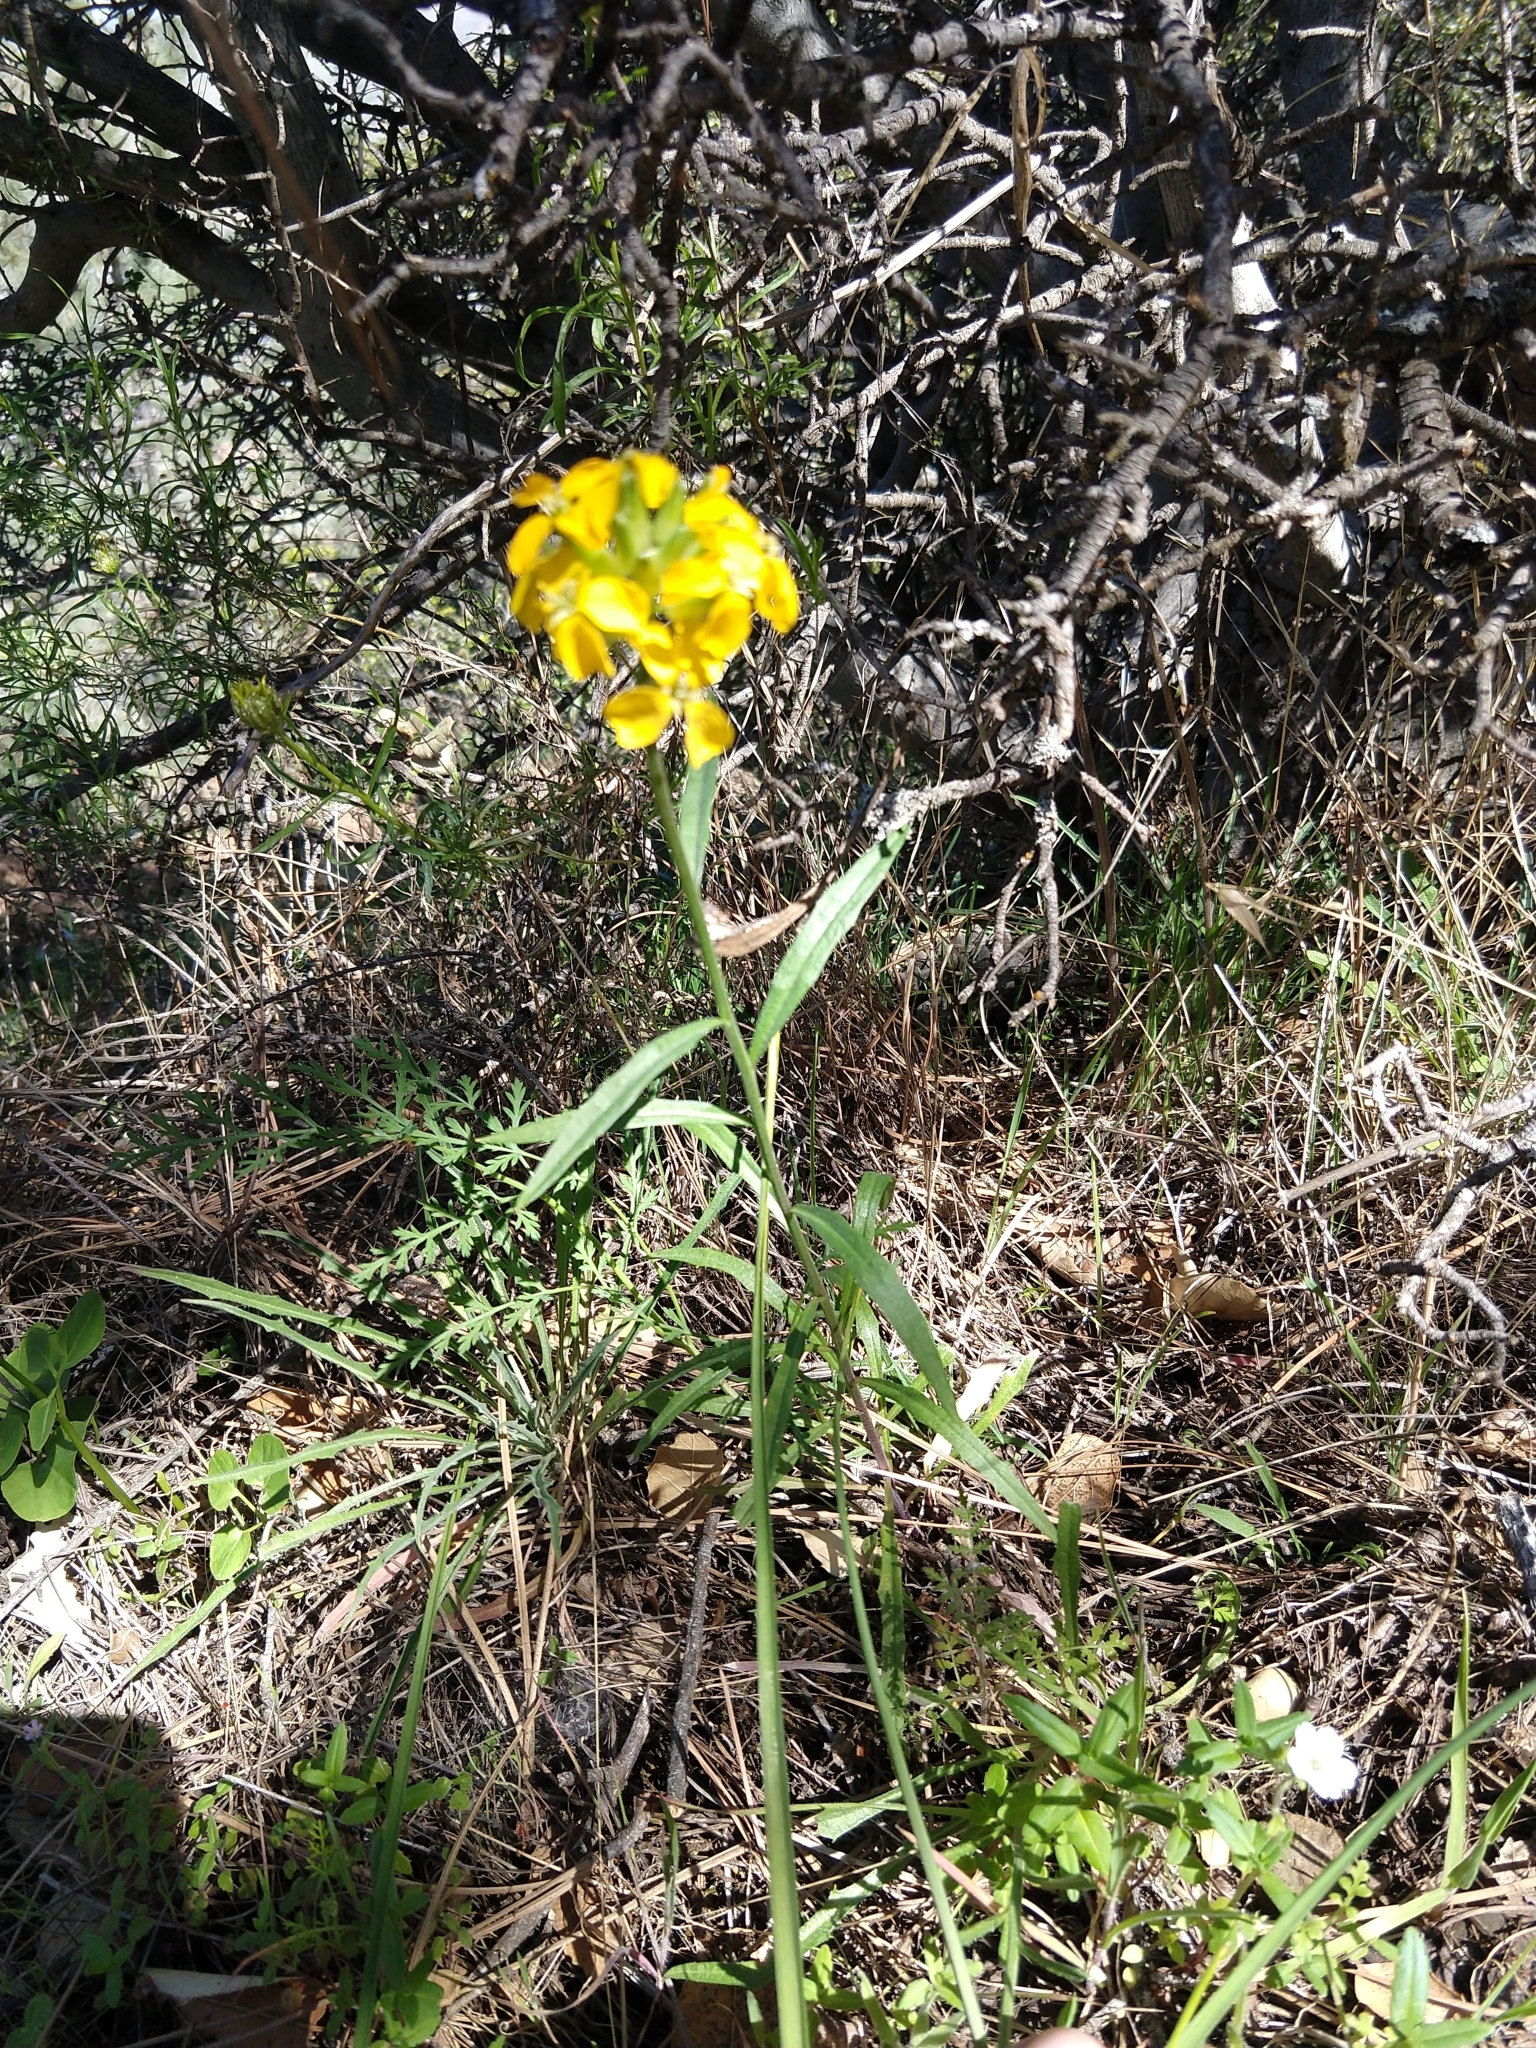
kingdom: Plantae
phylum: Tracheophyta
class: Magnoliopsida
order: Brassicales
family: Brassicaceae
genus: Erysimum
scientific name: Erysimum capitatum
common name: Western wallflower
